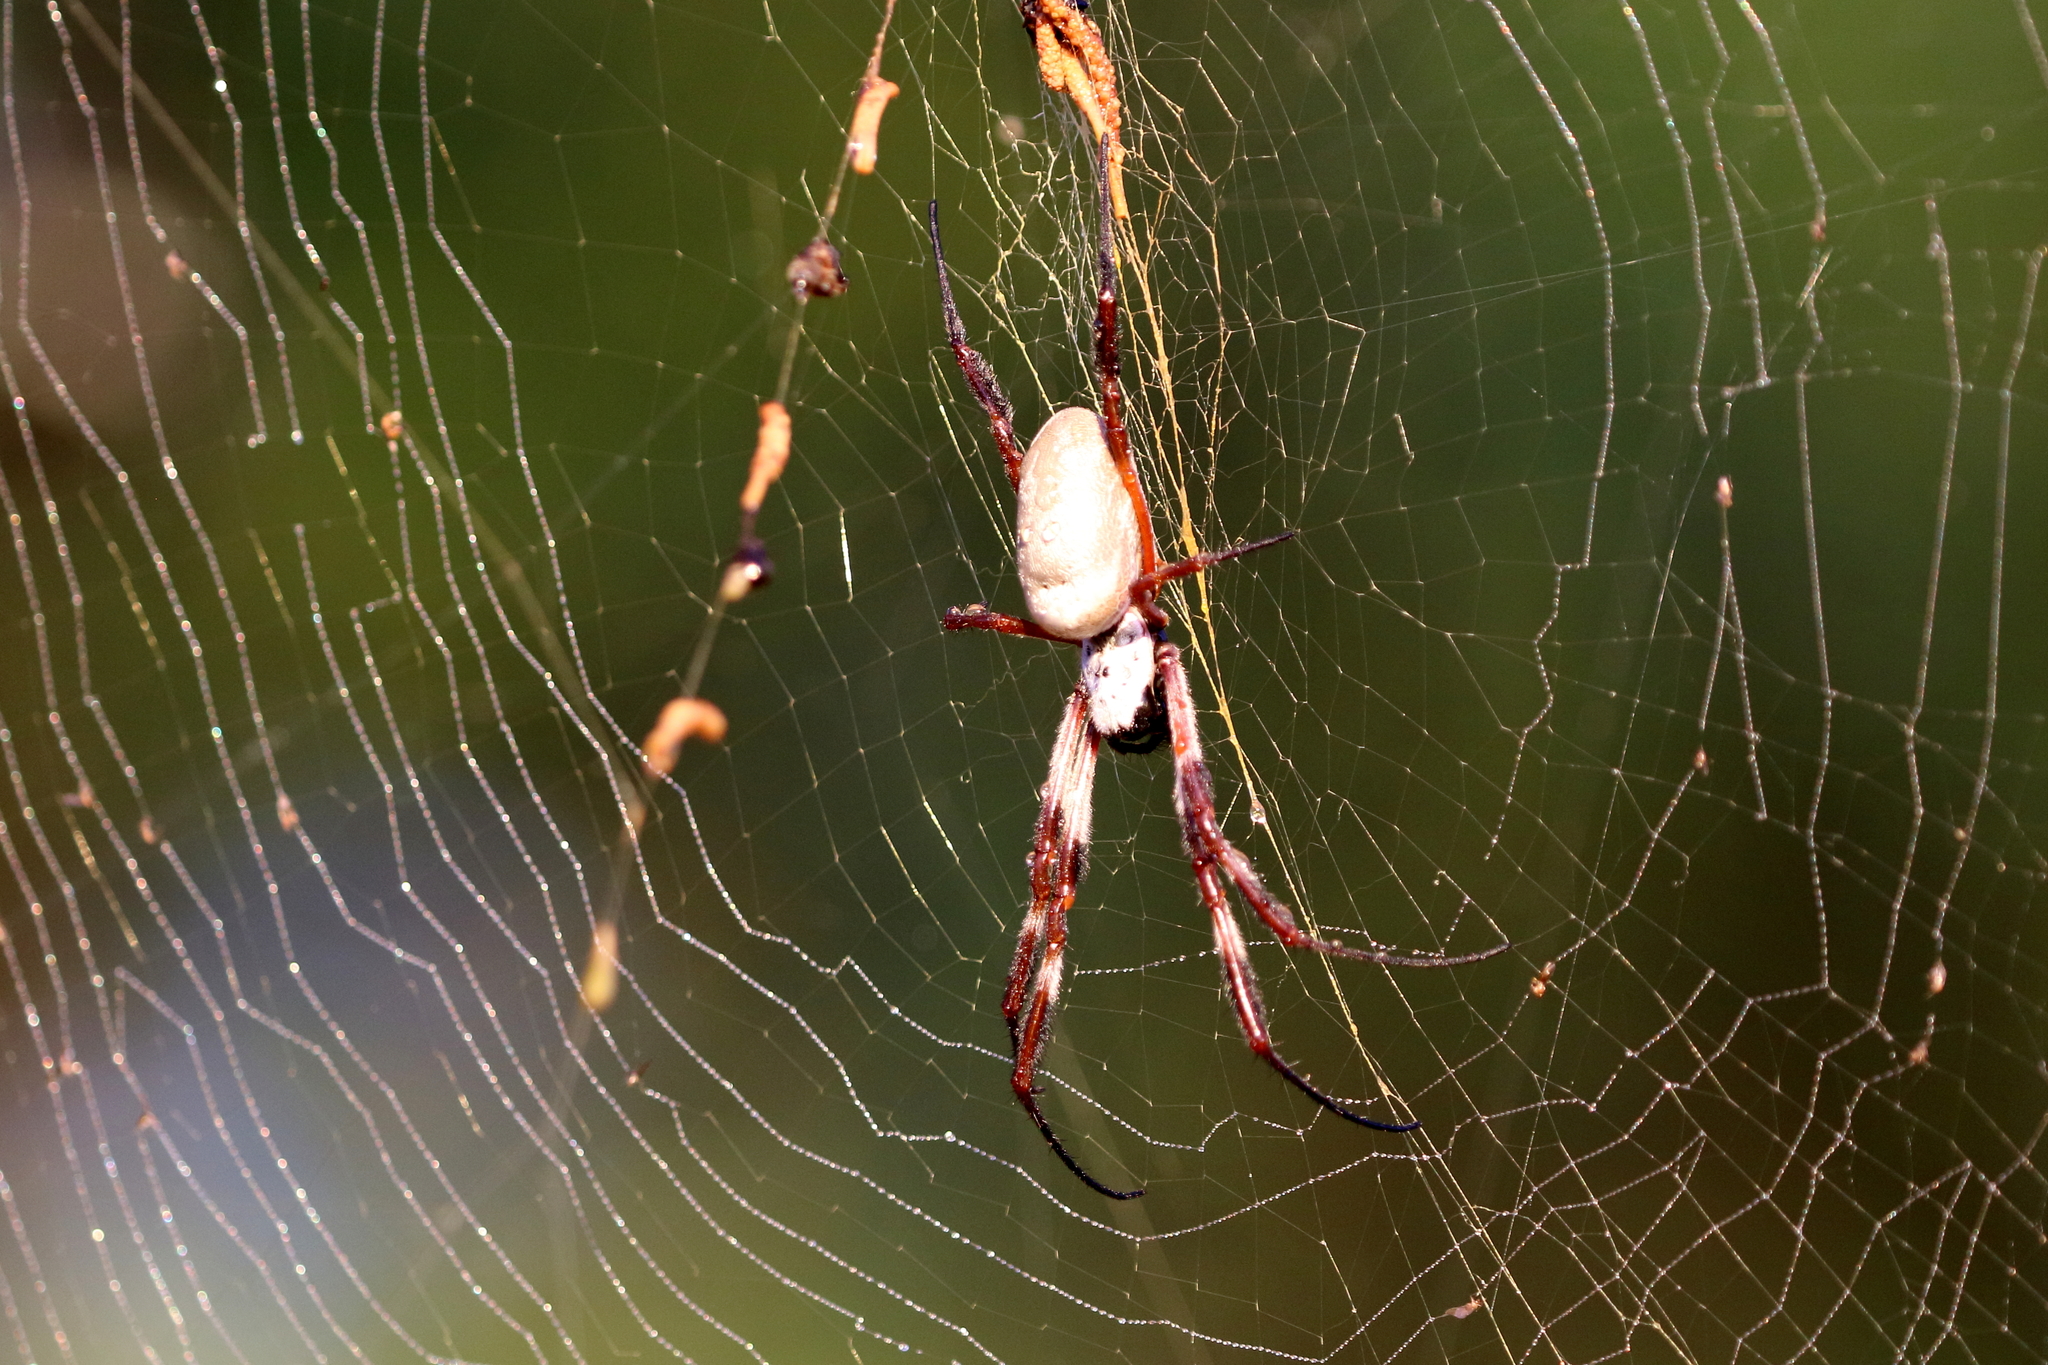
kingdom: Animalia
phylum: Arthropoda
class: Arachnida
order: Araneae
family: Araneidae
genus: Trichonephila
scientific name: Trichonephila edulis
